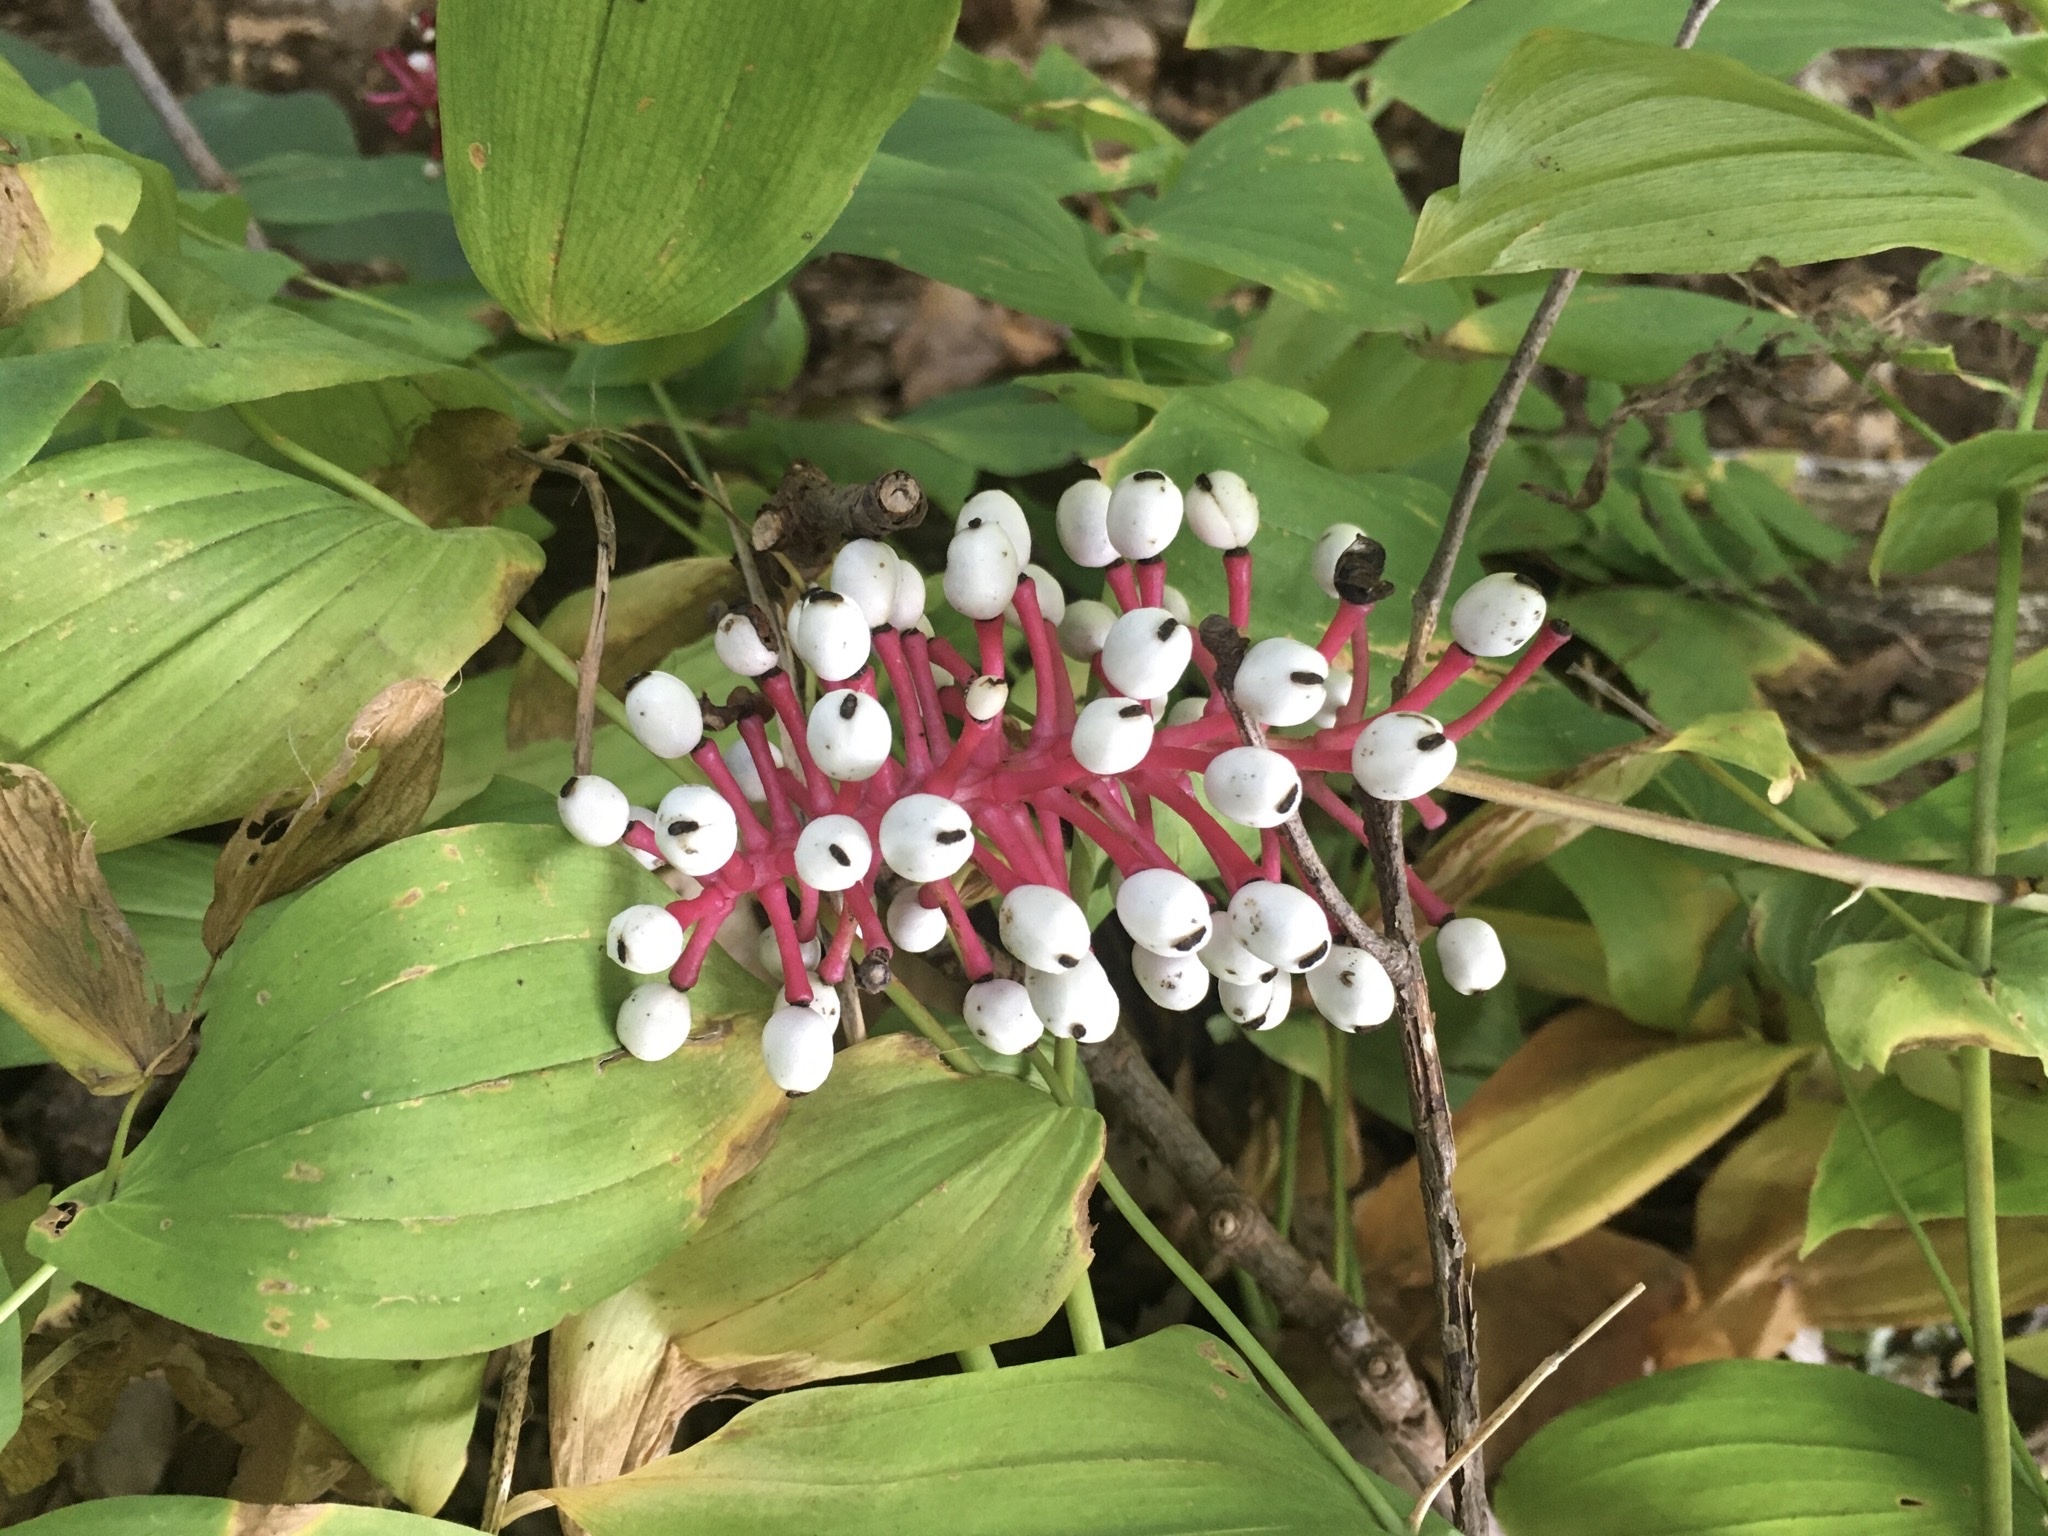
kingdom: Plantae
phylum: Tracheophyta
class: Magnoliopsida
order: Ranunculales
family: Ranunculaceae
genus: Actaea
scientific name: Actaea pachypoda
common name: Doll's-eyes
